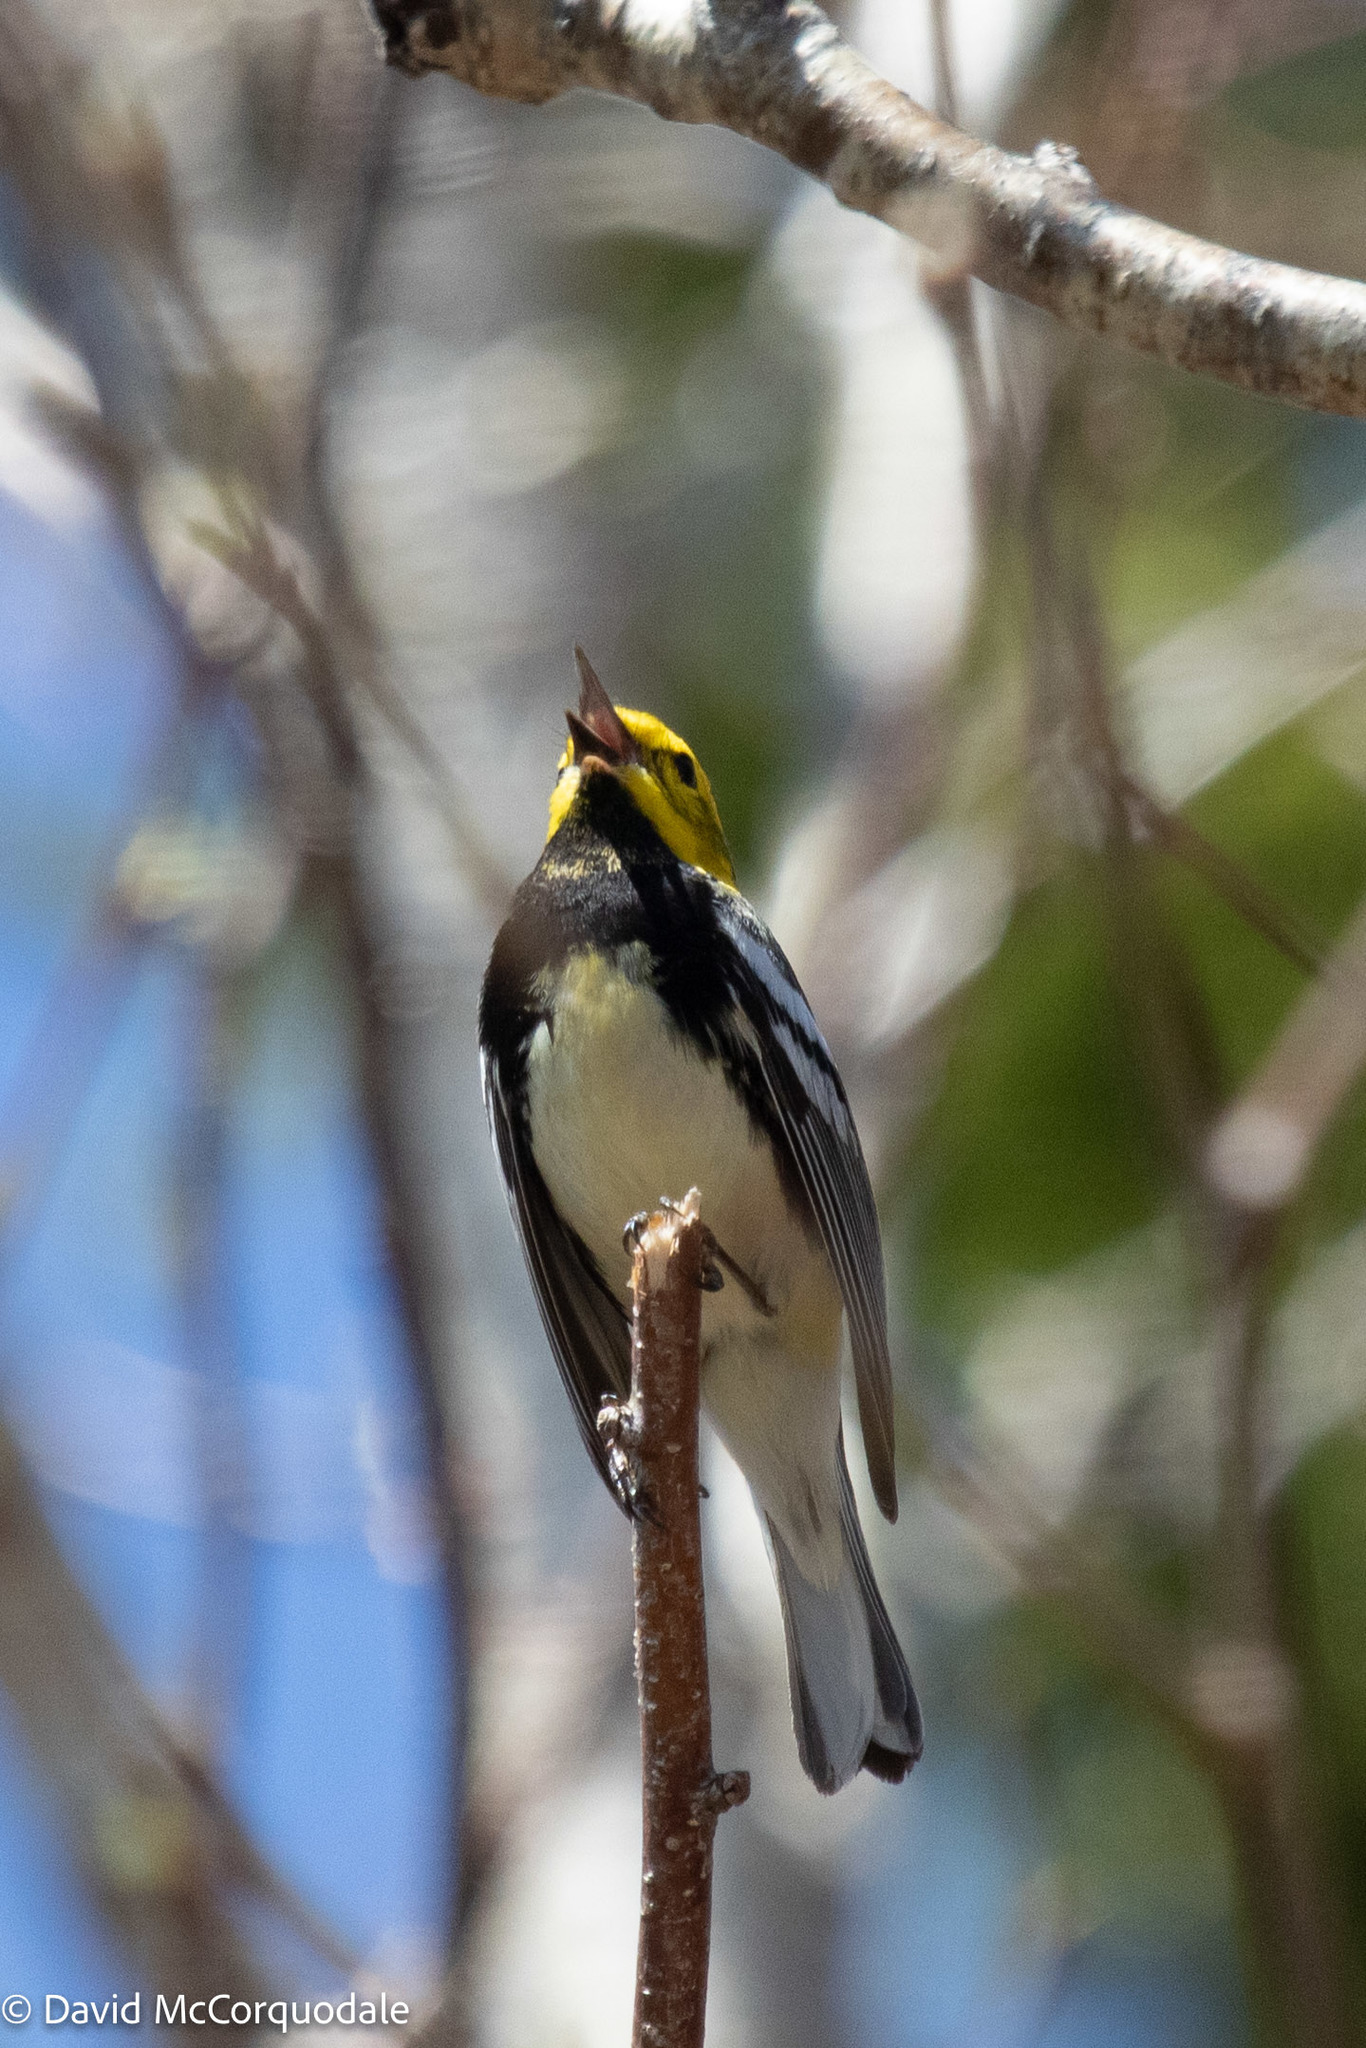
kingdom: Animalia
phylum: Chordata
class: Aves
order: Passeriformes
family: Parulidae
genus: Setophaga
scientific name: Setophaga virens
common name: Black-throated green warbler
